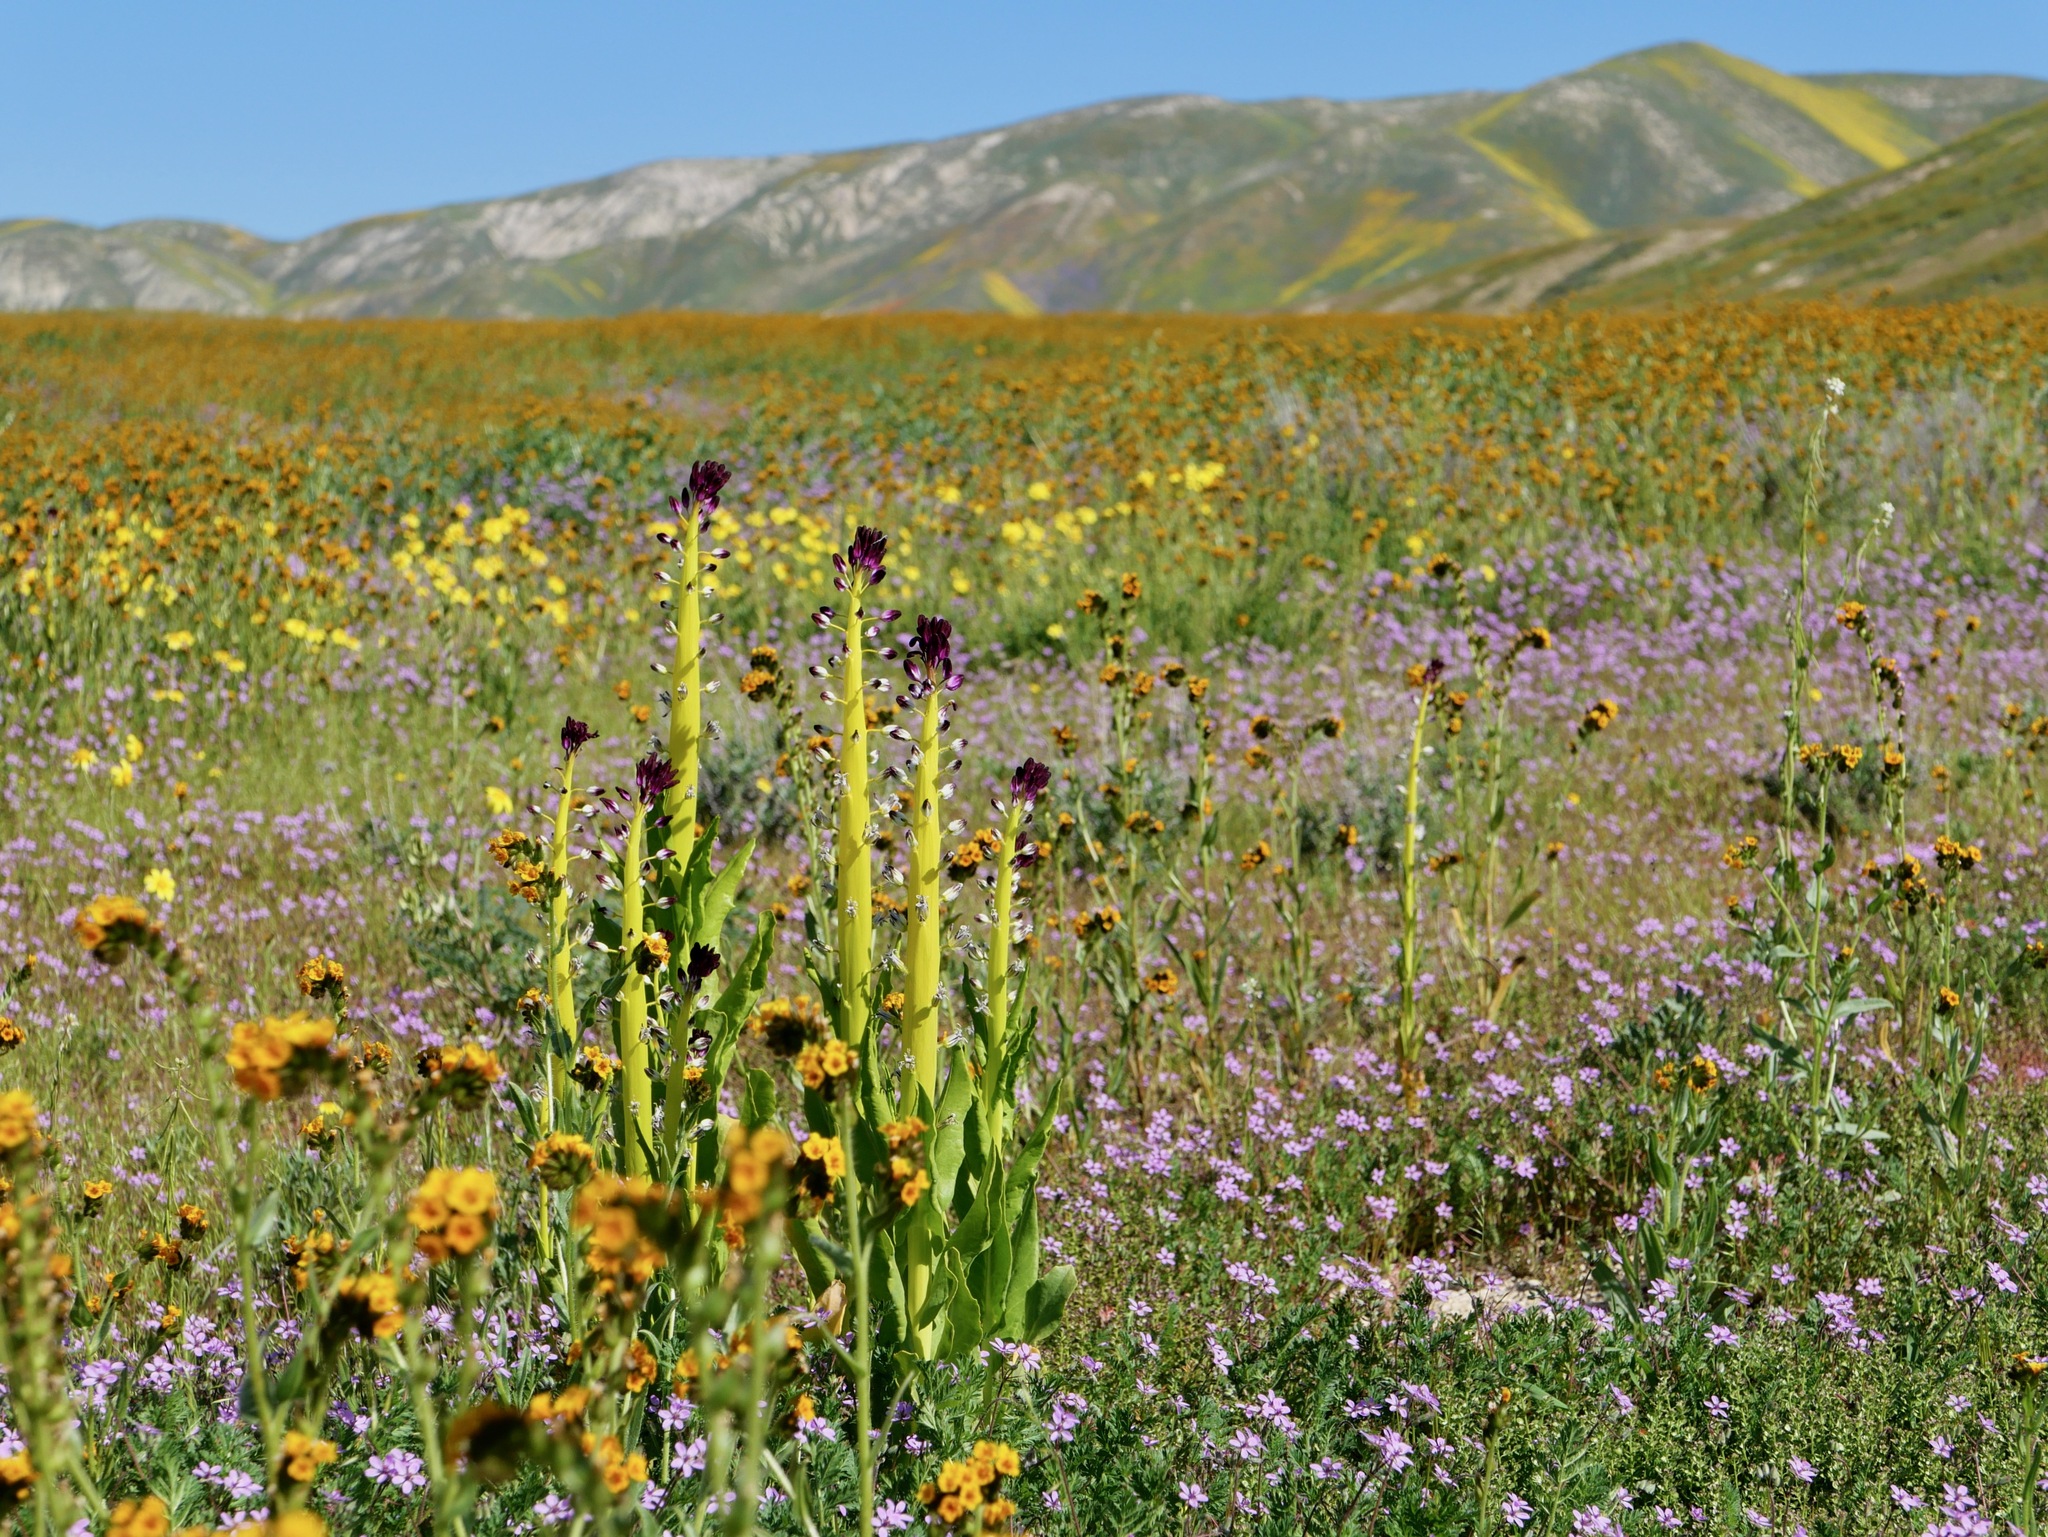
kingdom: Plantae
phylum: Tracheophyta
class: Magnoliopsida
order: Brassicales
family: Brassicaceae
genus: Streptanthus
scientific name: Streptanthus inflatus
